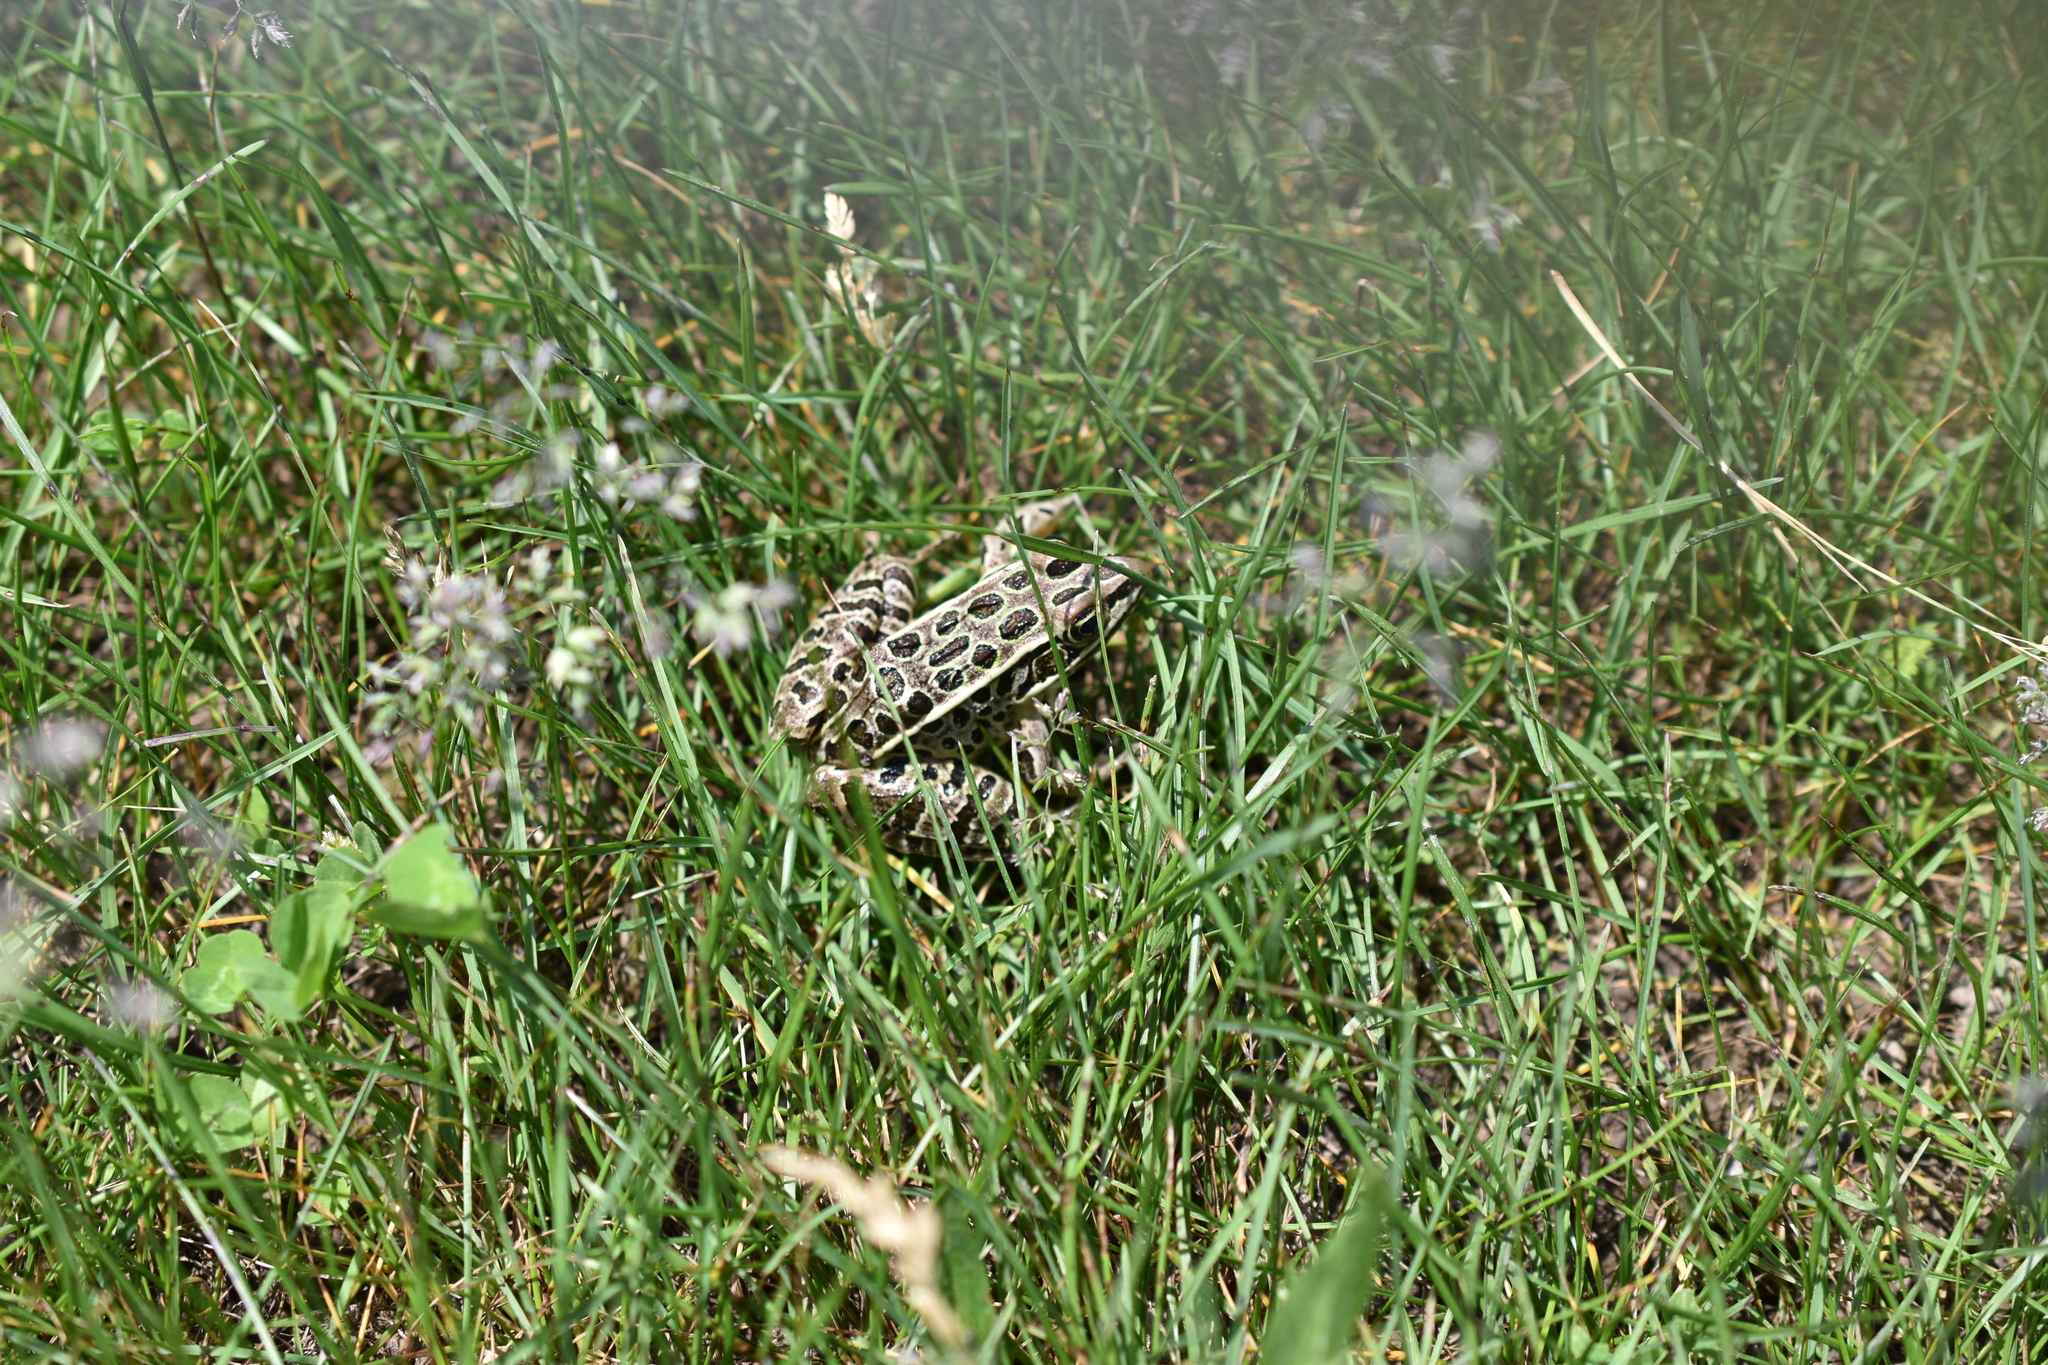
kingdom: Animalia
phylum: Chordata
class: Amphibia
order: Anura
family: Ranidae
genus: Lithobates
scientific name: Lithobates pipiens
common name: Northern leopard frog
